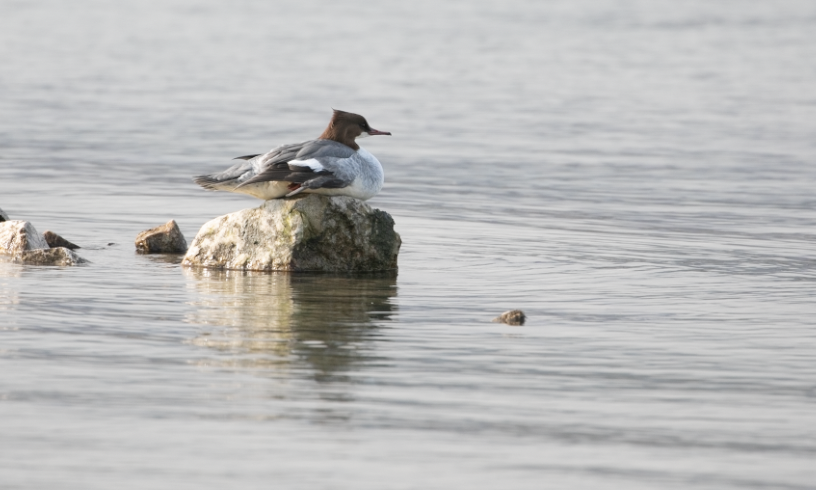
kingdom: Animalia
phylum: Chordata
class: Aves
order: Anseriformes
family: Anatidae
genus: Mergus
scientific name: Mergus merganser
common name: Common merganser
